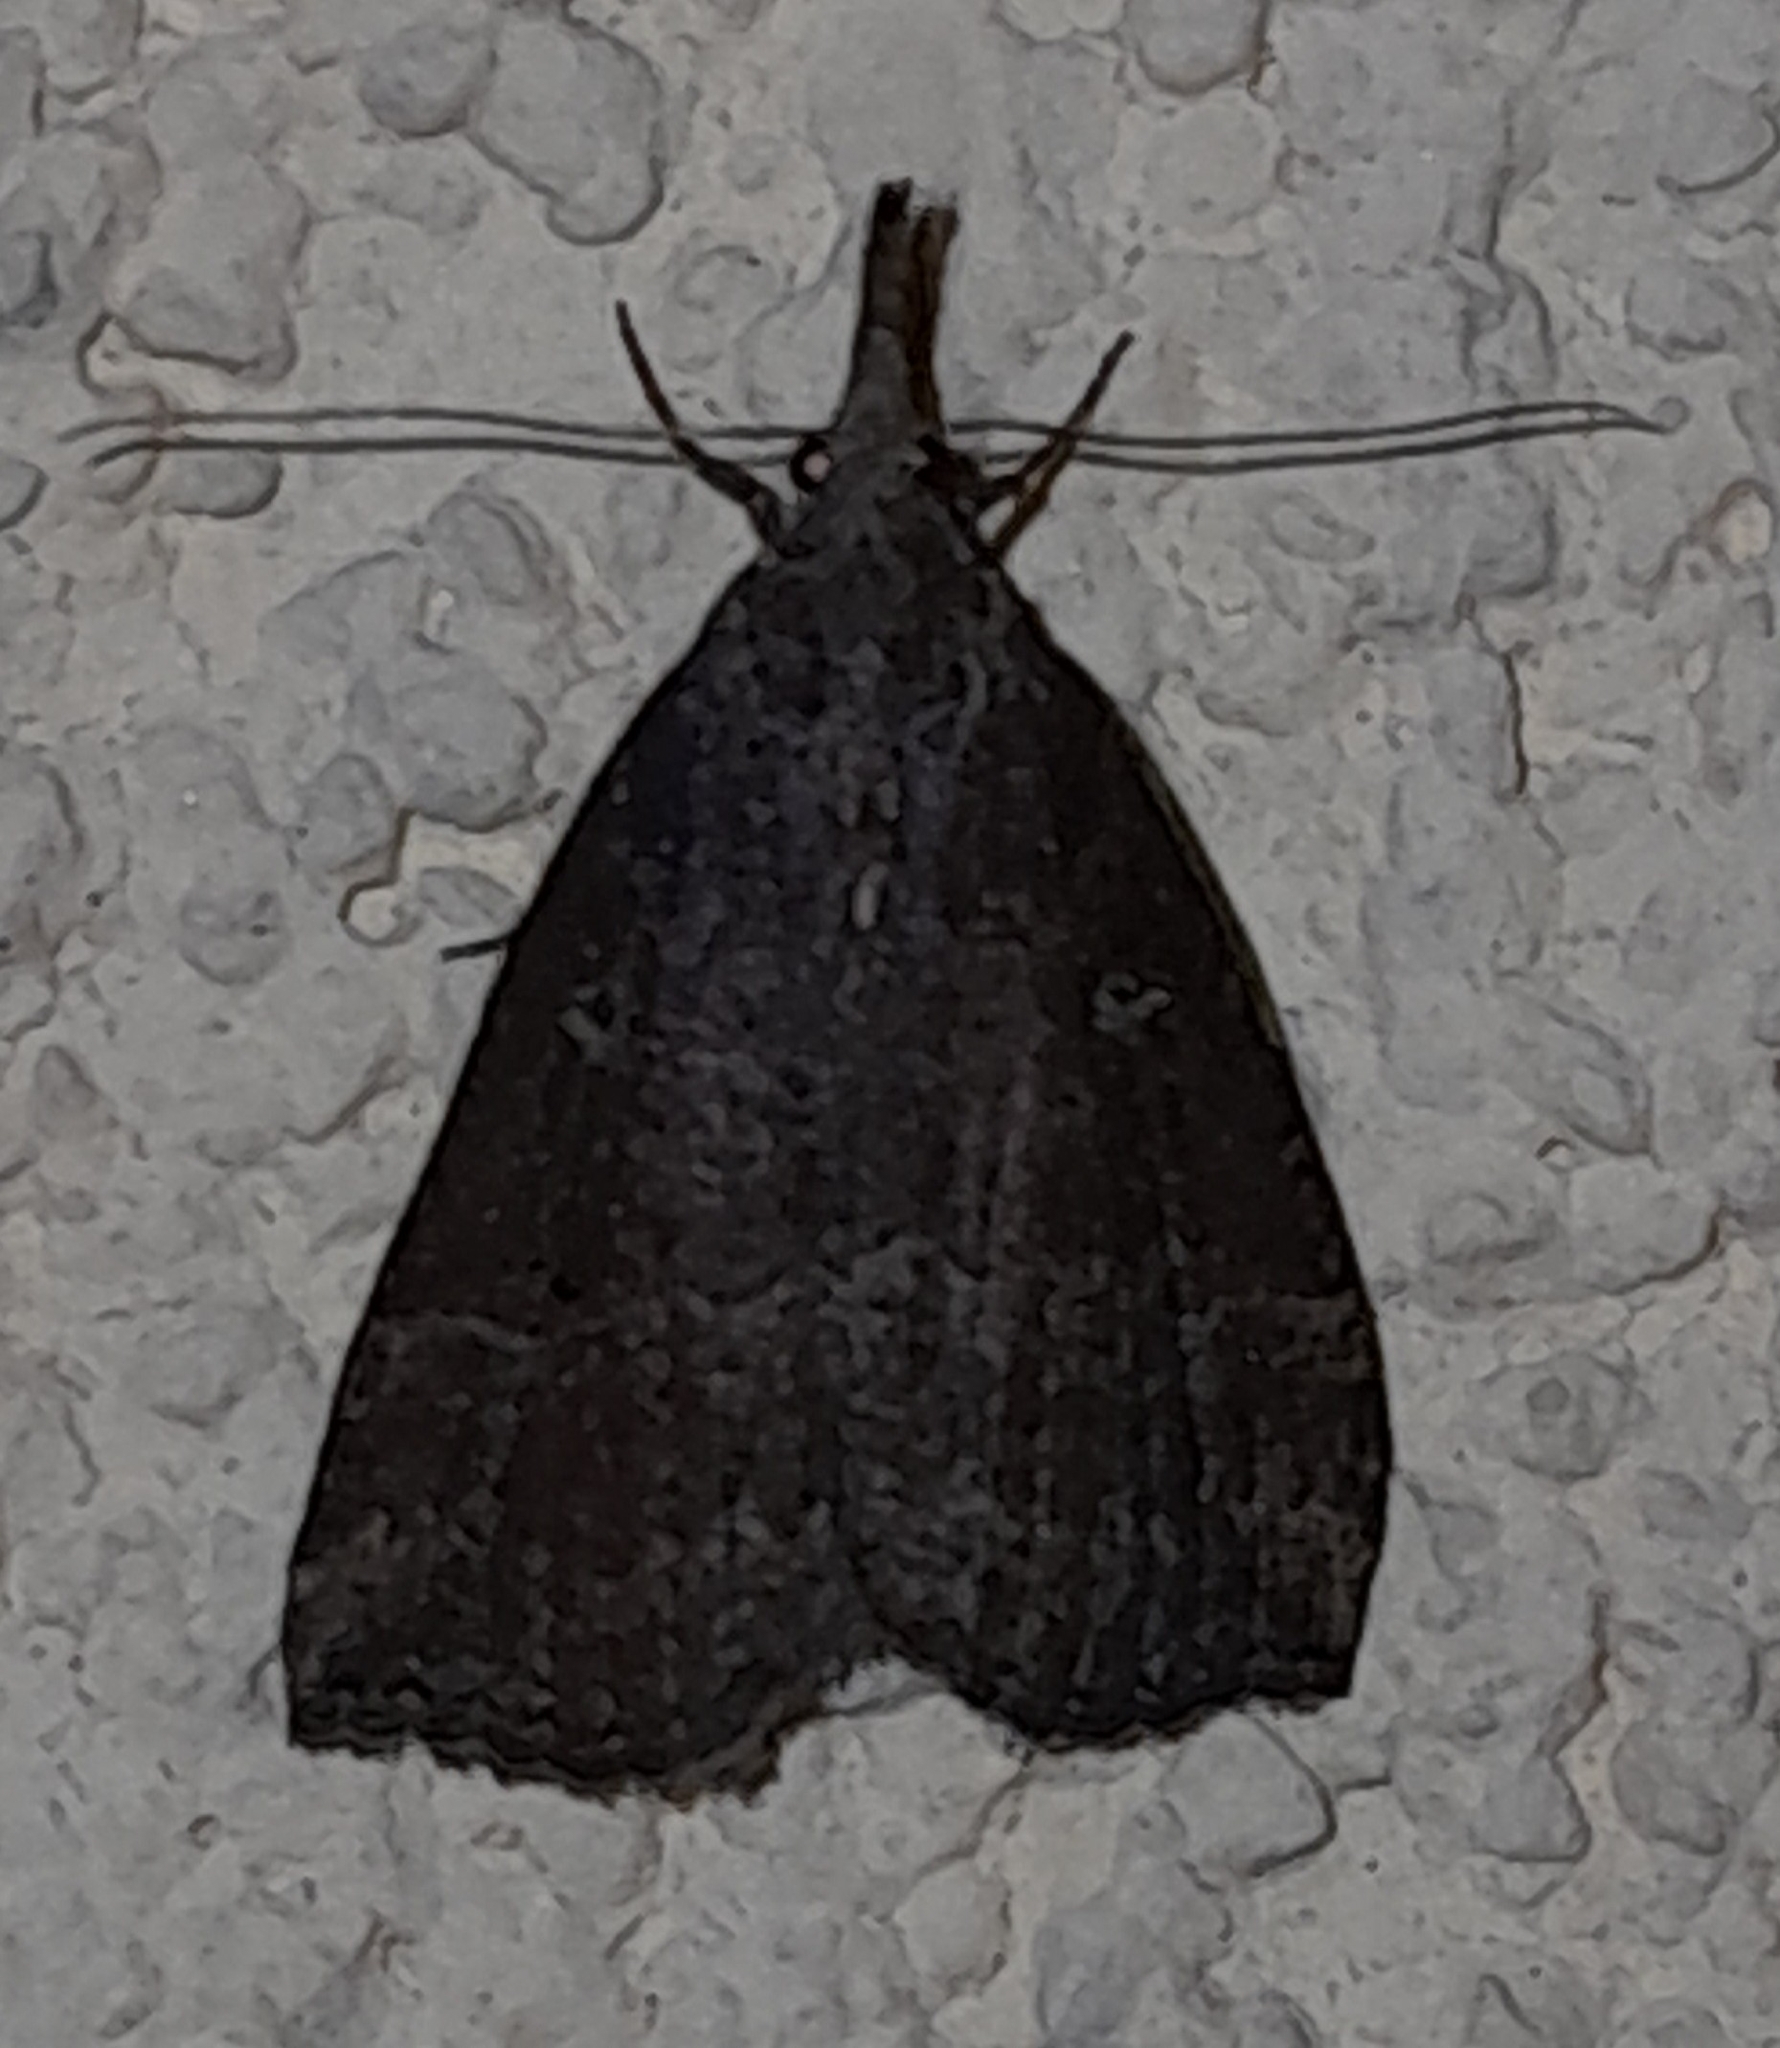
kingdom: Animalia
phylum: Arthropoda
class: Insecta
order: Lepidoptera
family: Erebidae
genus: Hypena
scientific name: Hypena rostralis
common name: Buttoned snout
